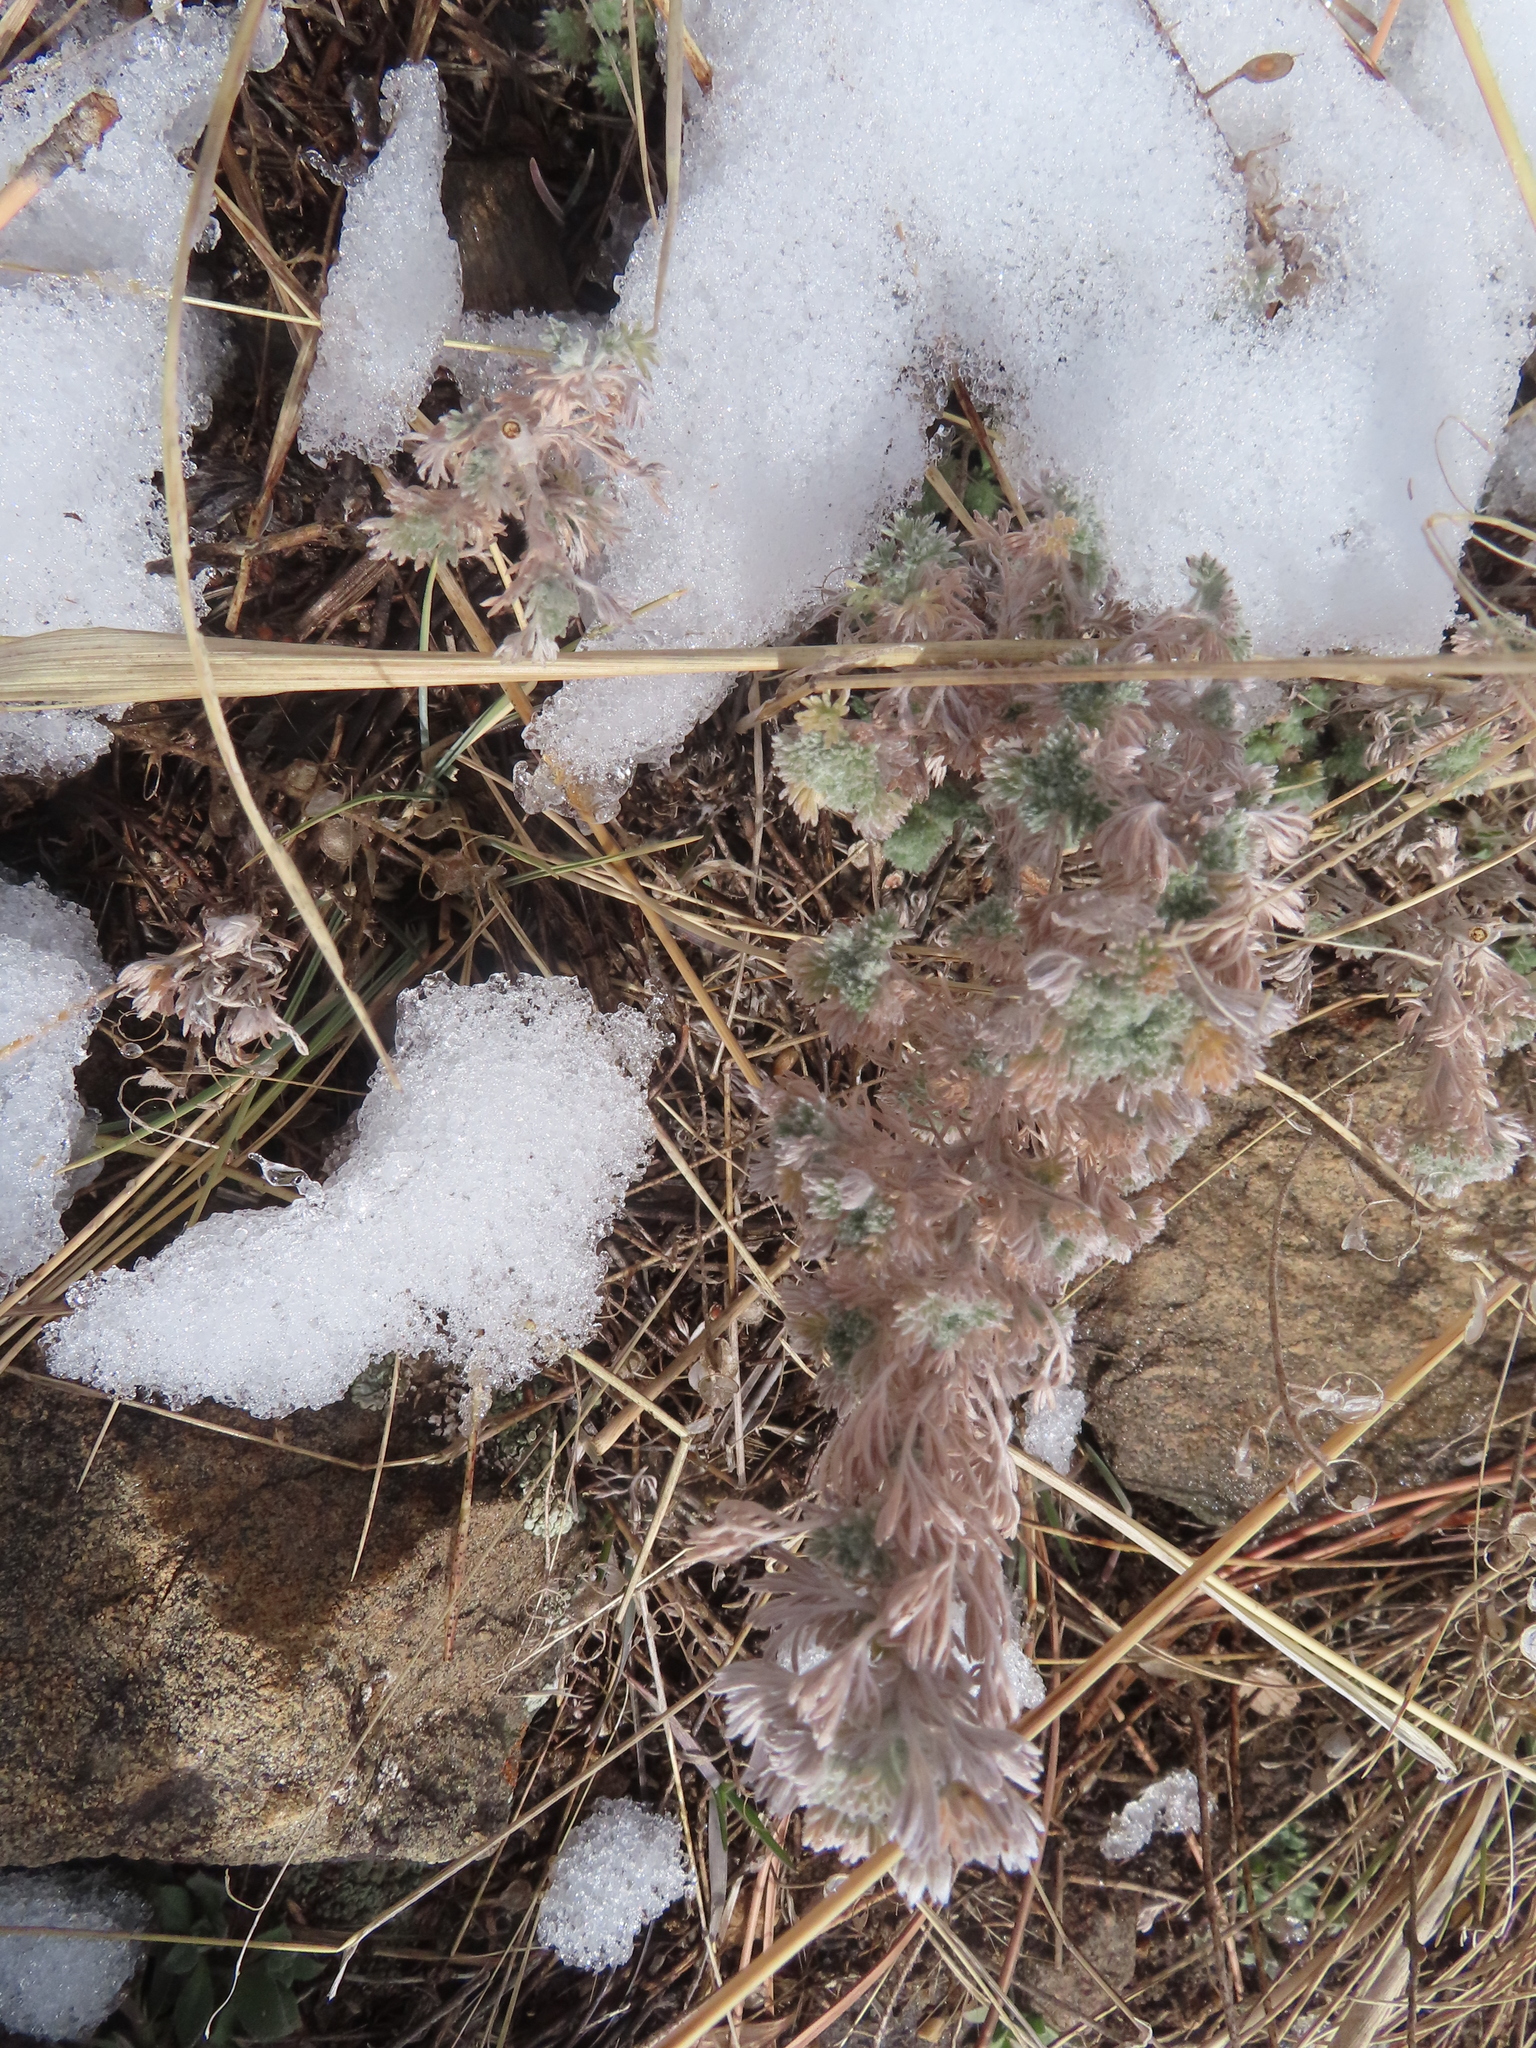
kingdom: Plantae
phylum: Tracheophyta
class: Magnoliopsida
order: Asterales
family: Asteraceae
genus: Artemisia
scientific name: Artemisia frigida
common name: Prairie sagewort
